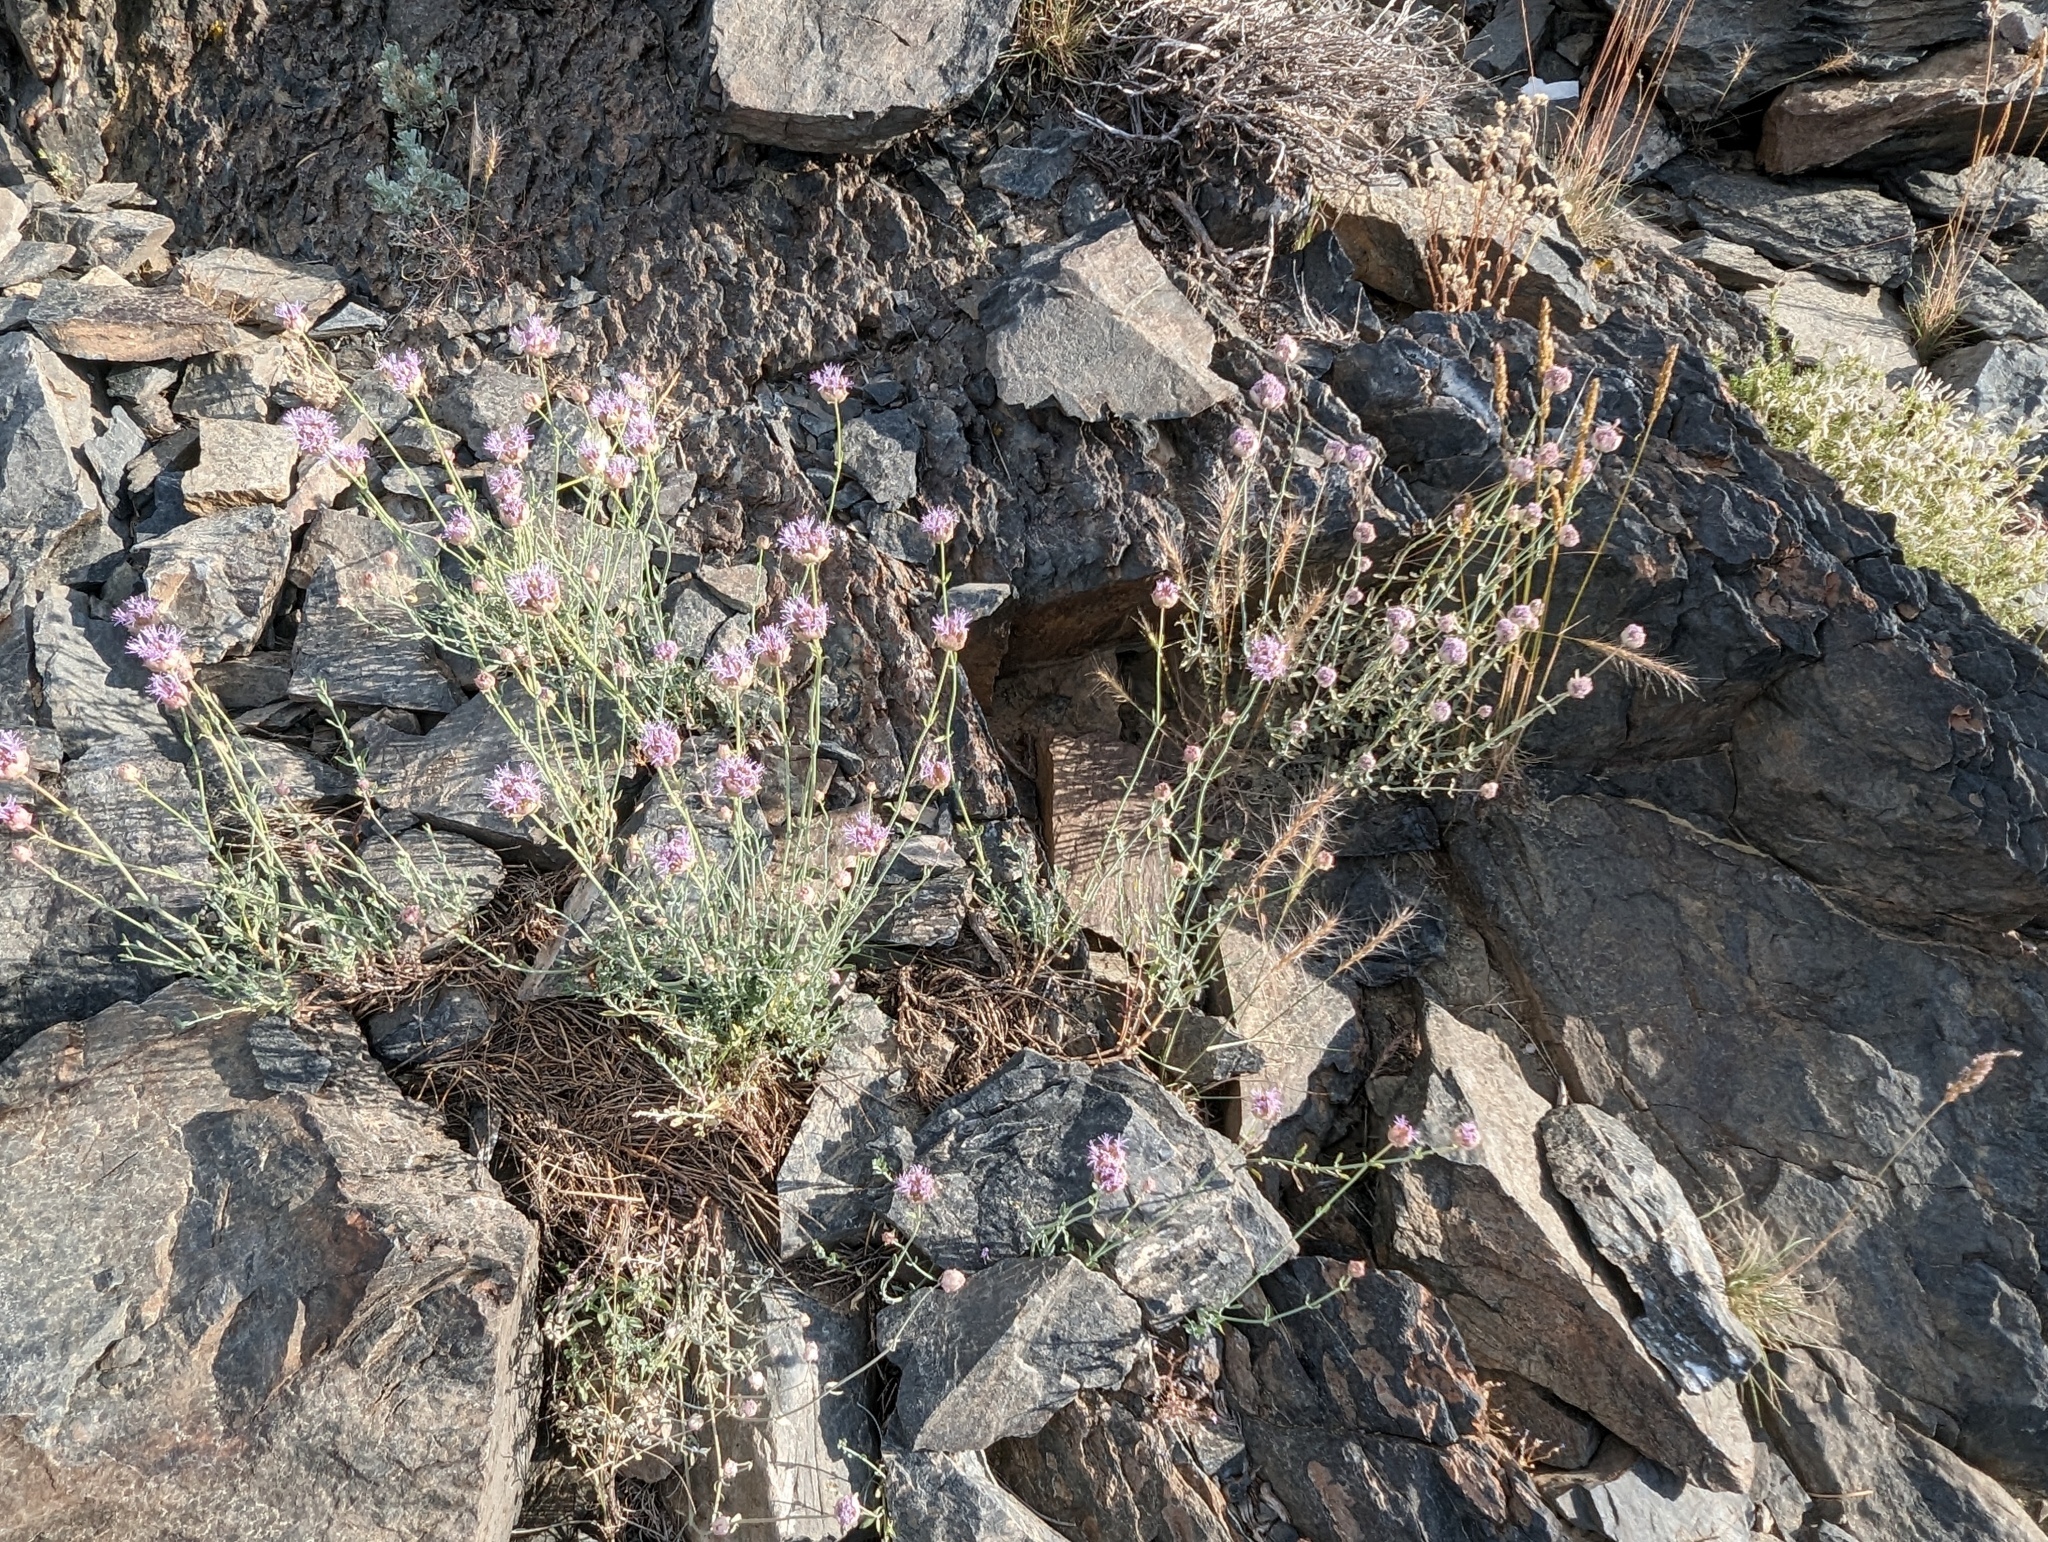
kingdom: Plantae
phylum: Tracheophyta
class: Magnoliopsida
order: Lamiales
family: Lamiaceae
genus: Monardella
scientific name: Monardella linoides
